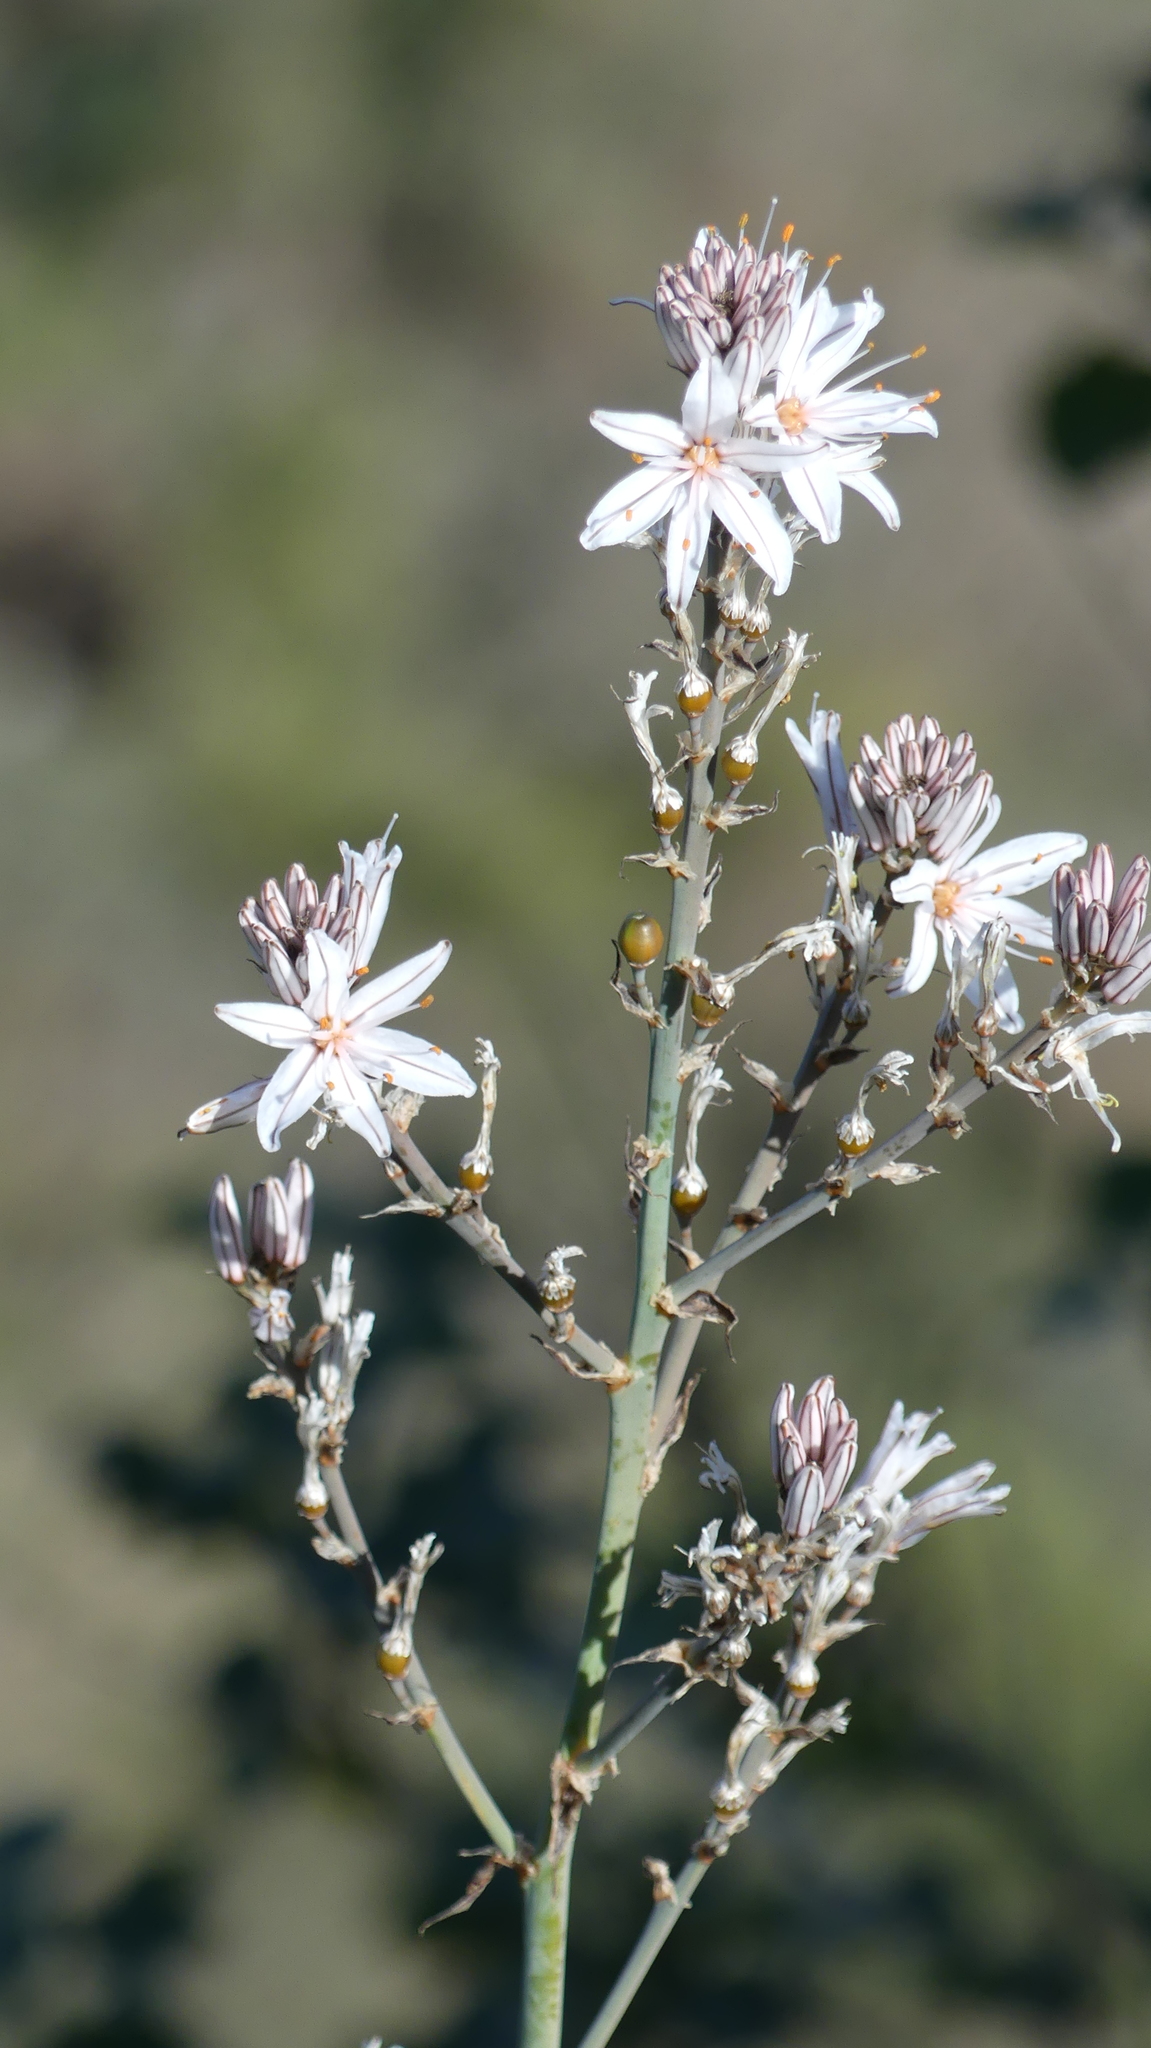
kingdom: Plantae
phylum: Tracheophyta
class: Liliopsida
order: Asparagales
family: Asphodelaceae
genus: Asphodelus
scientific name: Asphodelus ramosus
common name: Silverrod
